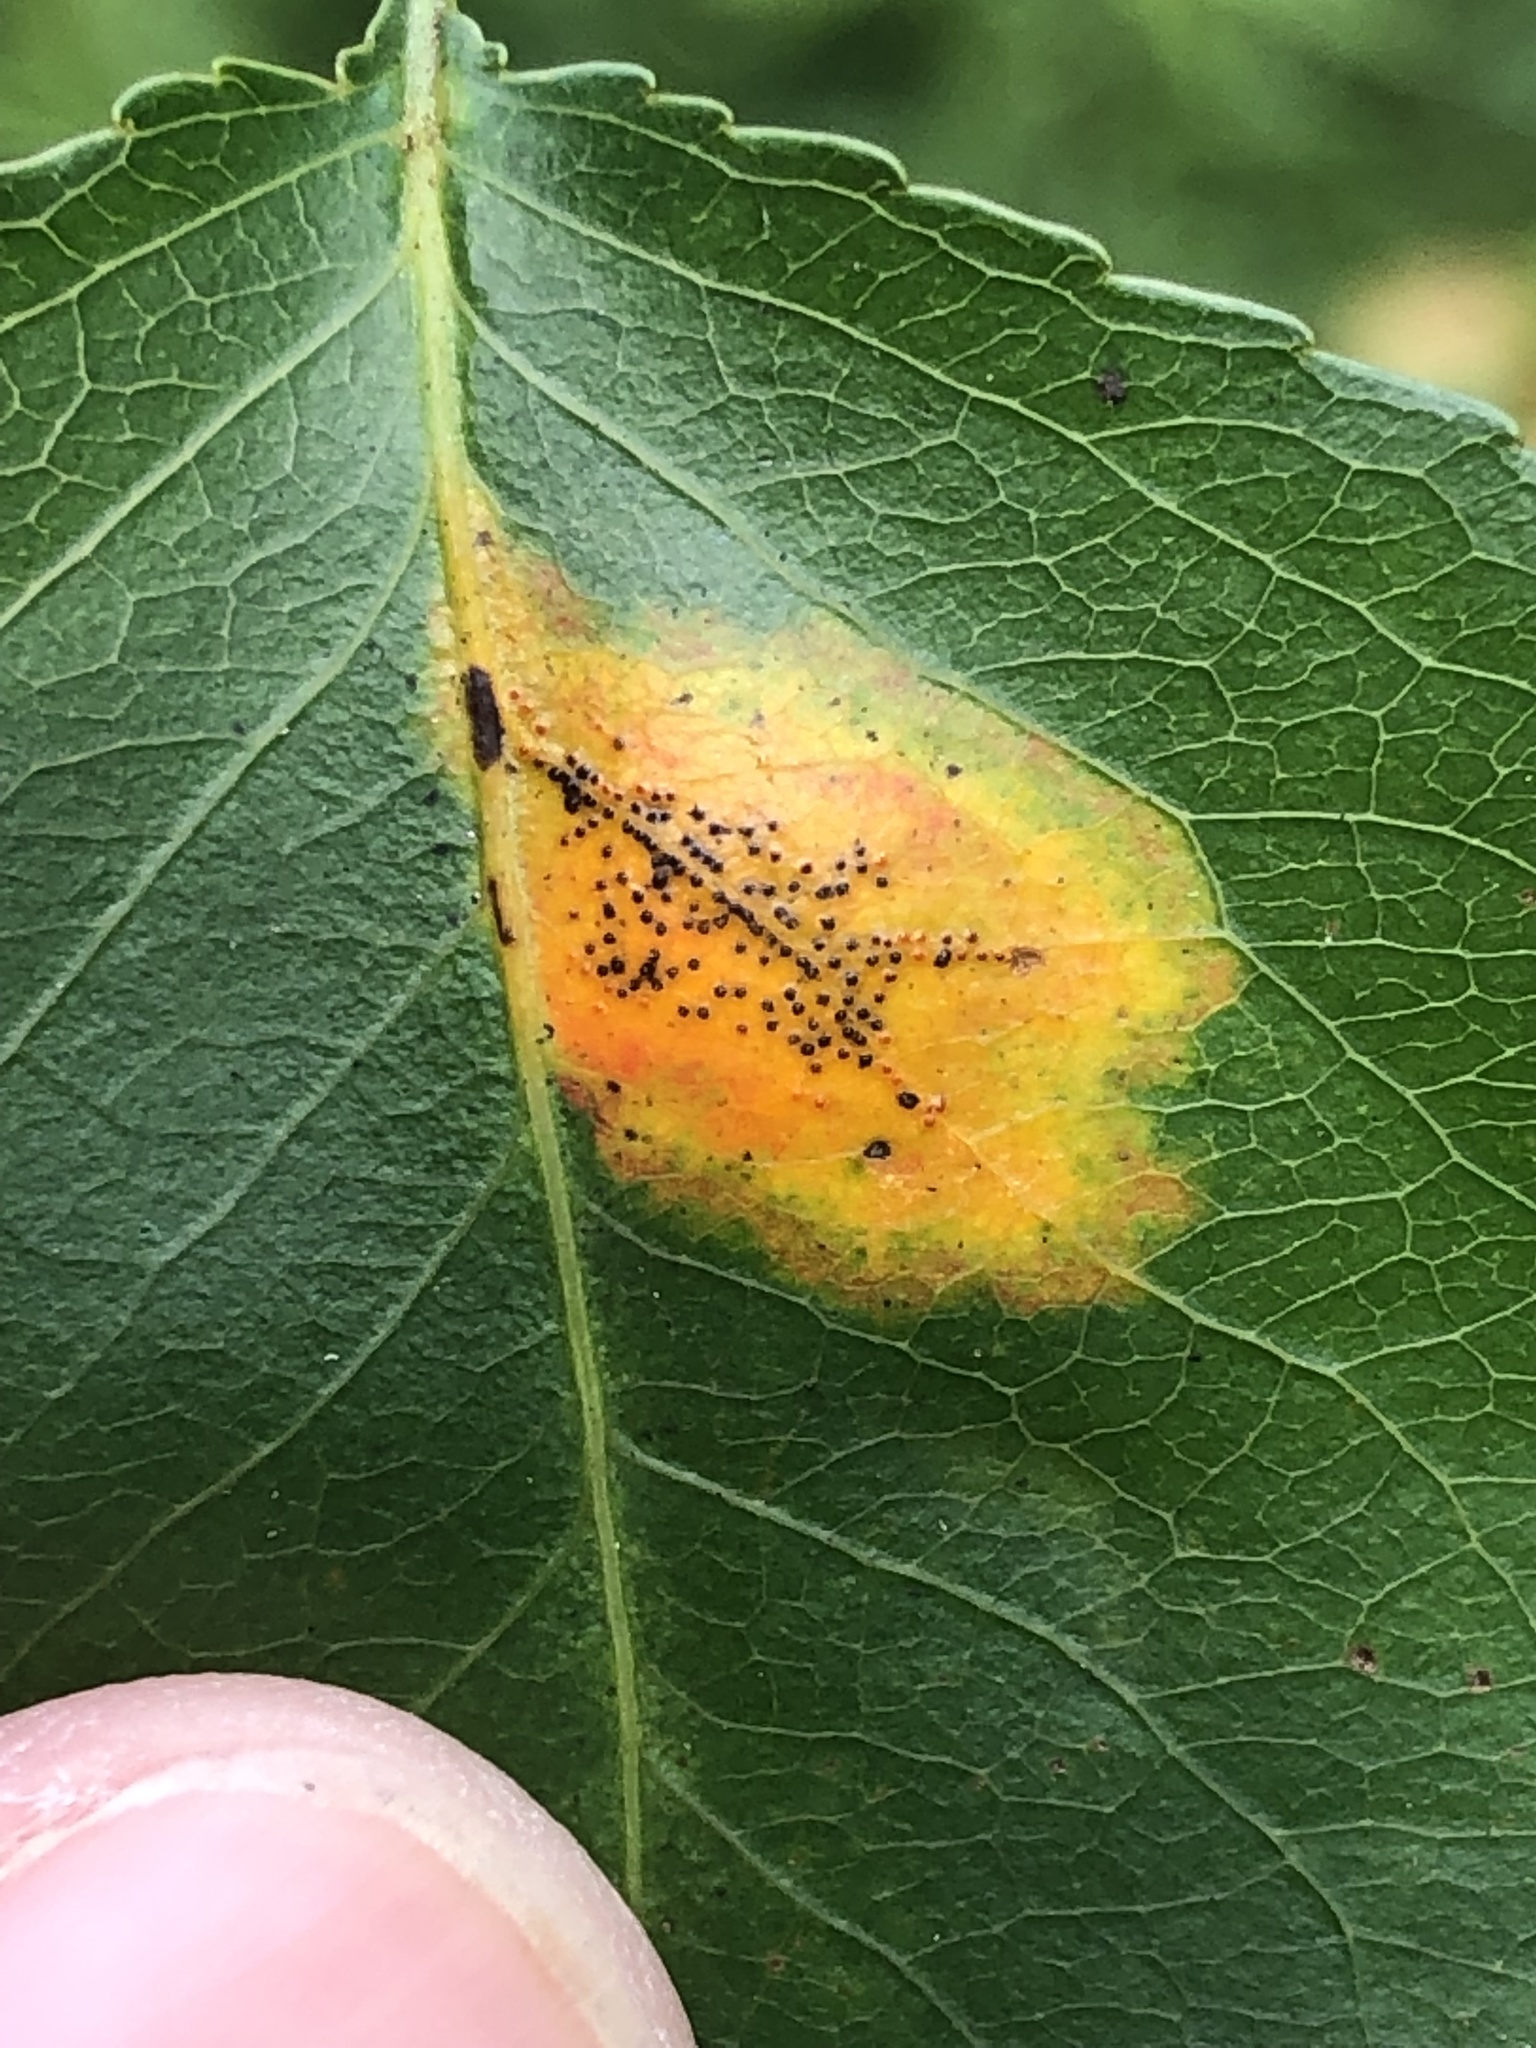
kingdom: Fungi
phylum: Basidiomycota
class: Pucciniomycetes
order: Pucciniales
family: Gymnosporangiaceae
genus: Gymnosporangium
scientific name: Gymnosporangium sabinae
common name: Pear trellis rust fungus
